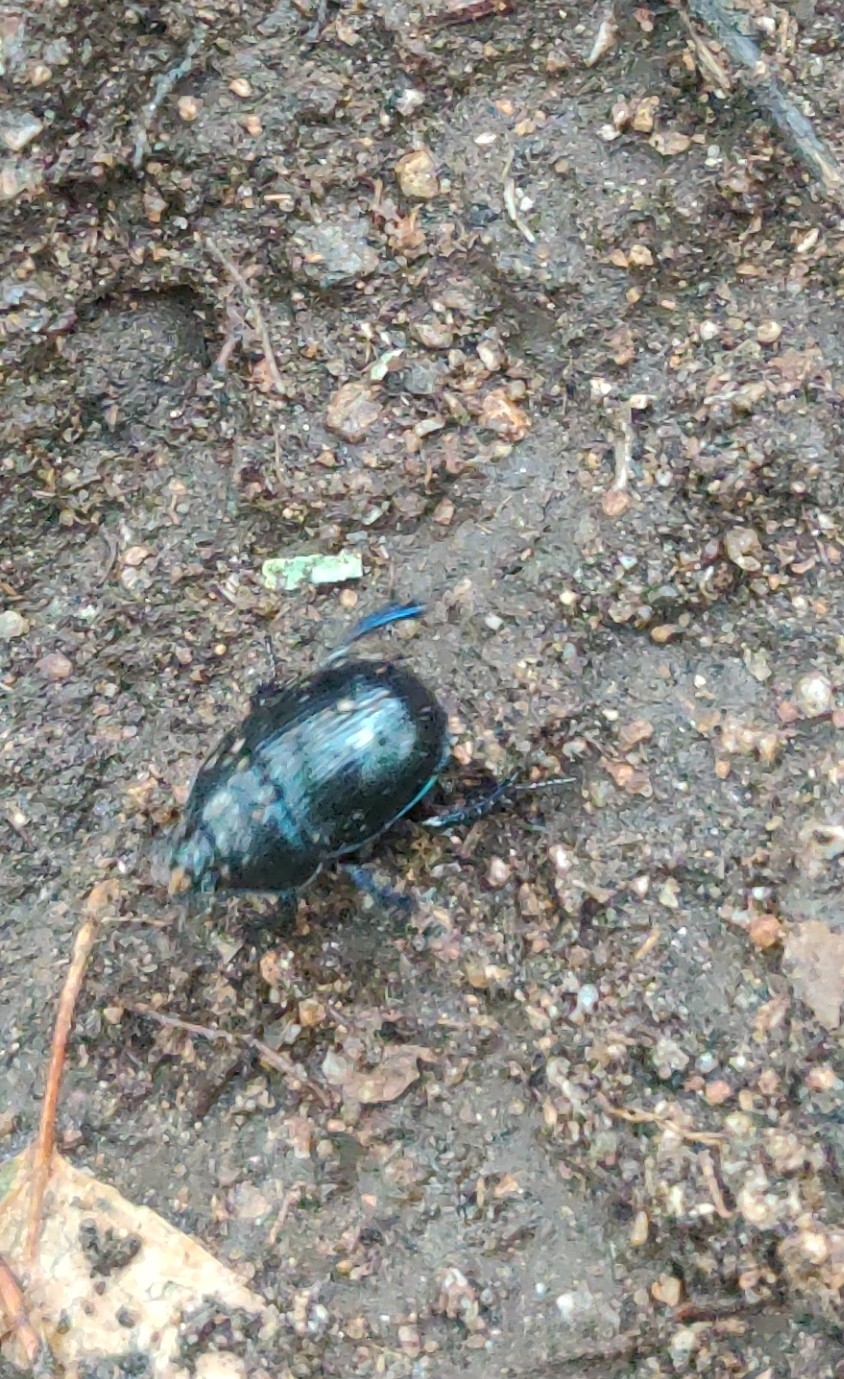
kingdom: Animalia
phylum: Arthropoda
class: Insecta
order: Coleoptera
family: Geotrupidae
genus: Anoplotrupes
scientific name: Anoplotrupes stercorosus
